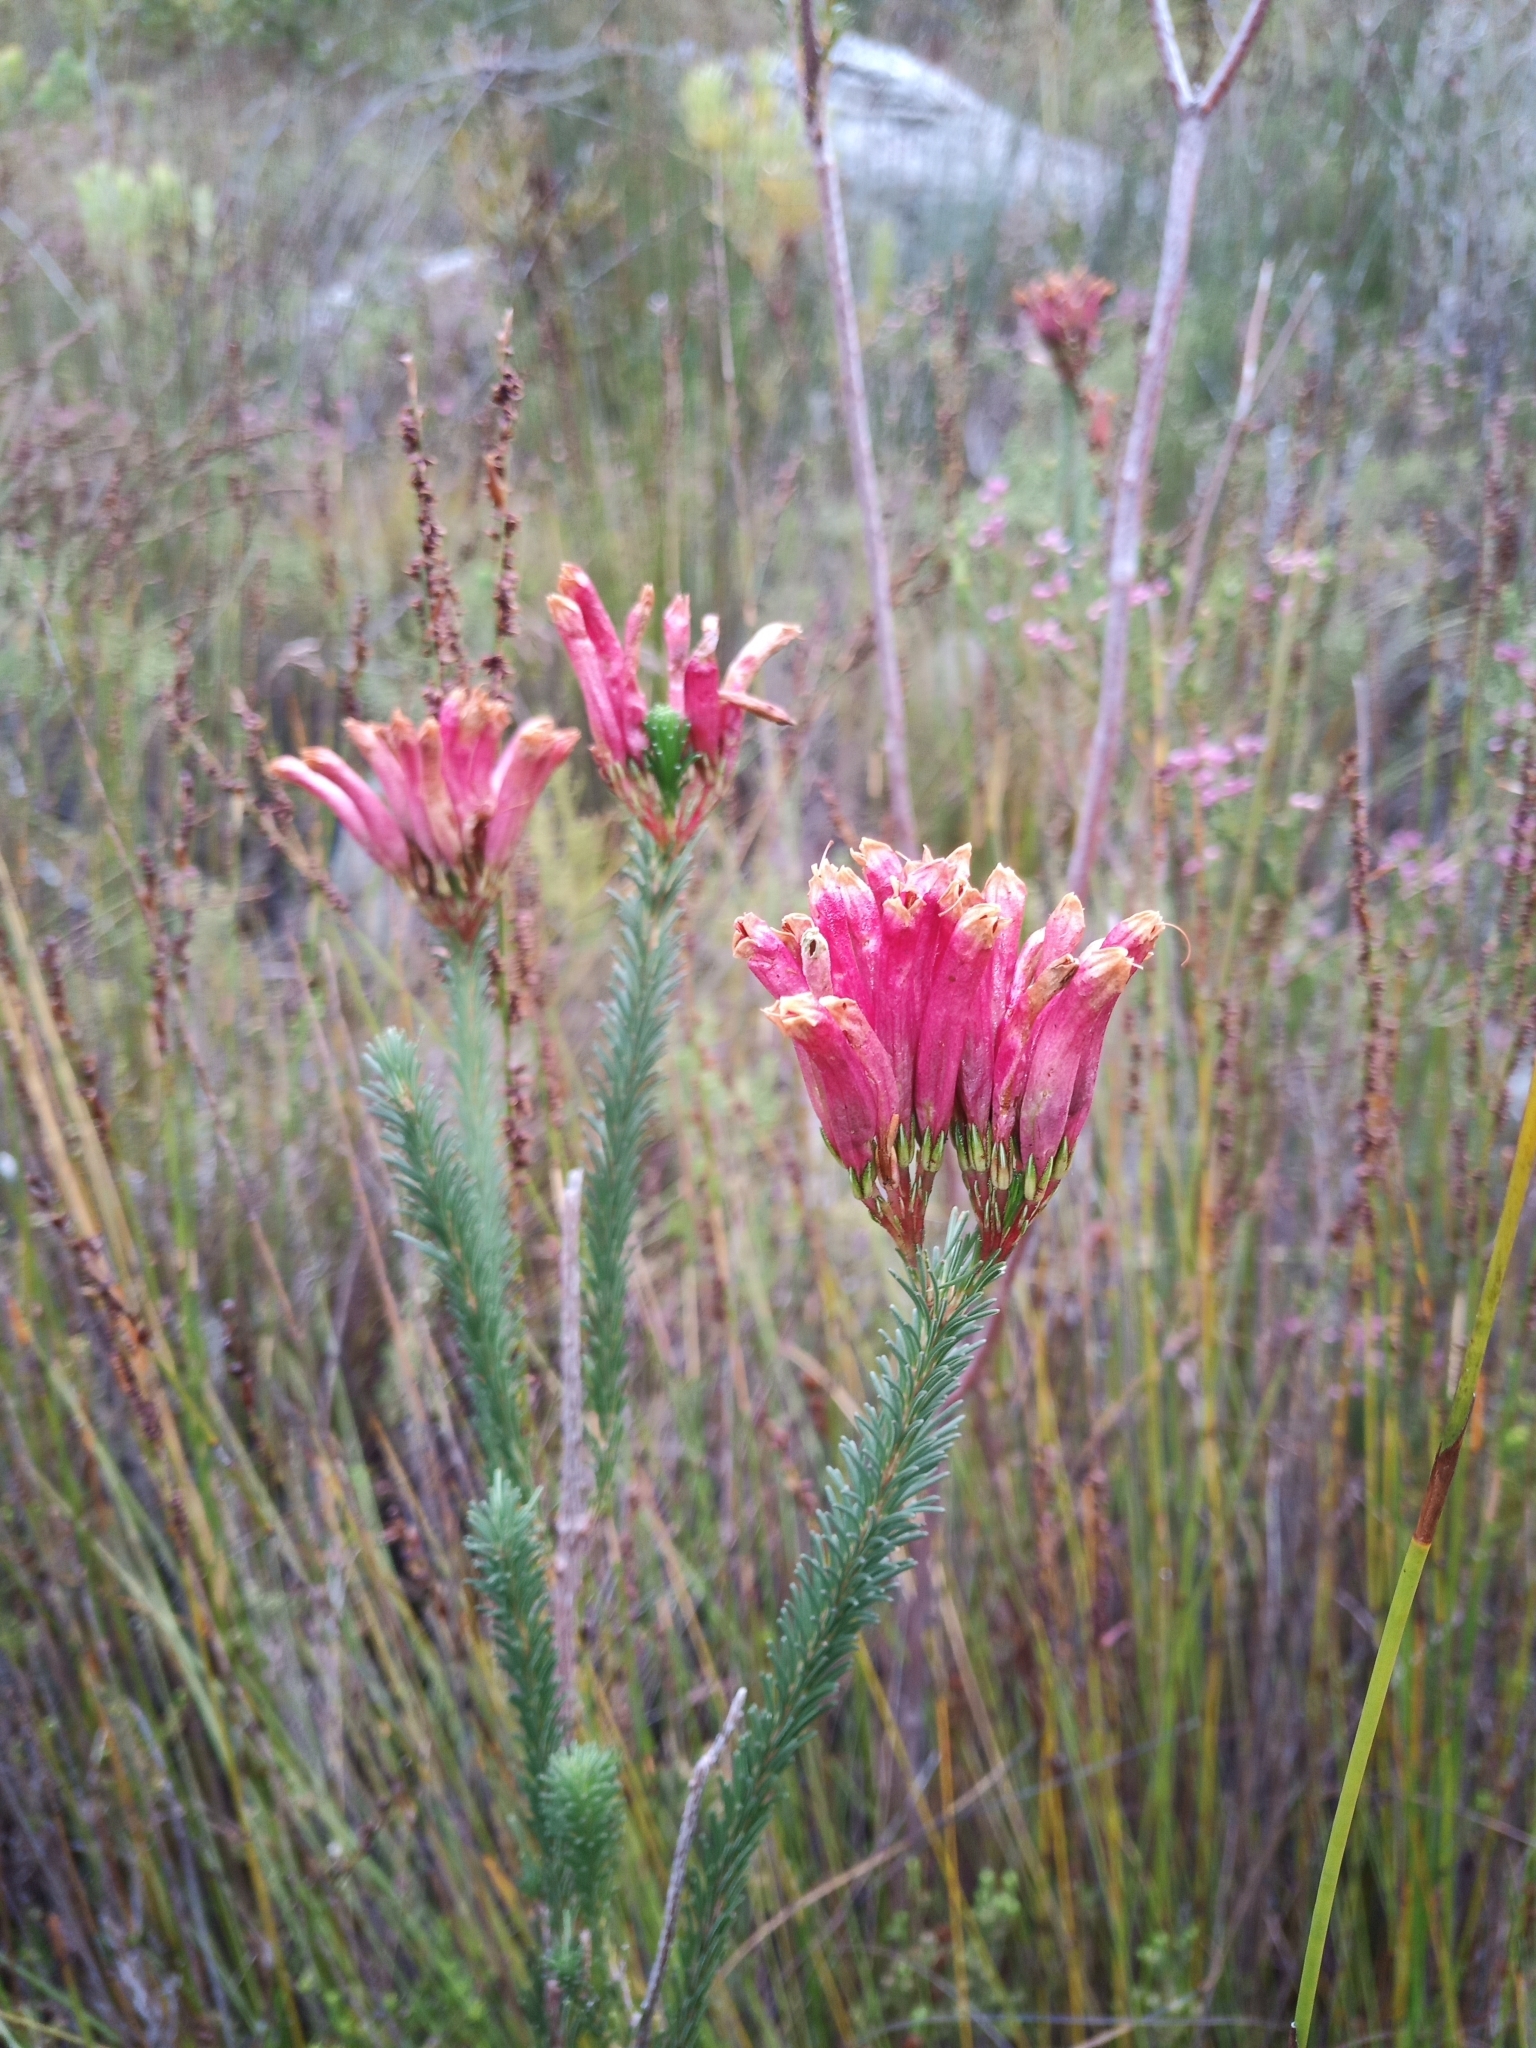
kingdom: Plantae
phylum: Tracheophyta
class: Magnoliopsida
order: Ericales
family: Ericaceae
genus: Erica
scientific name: Erica fascicularis
